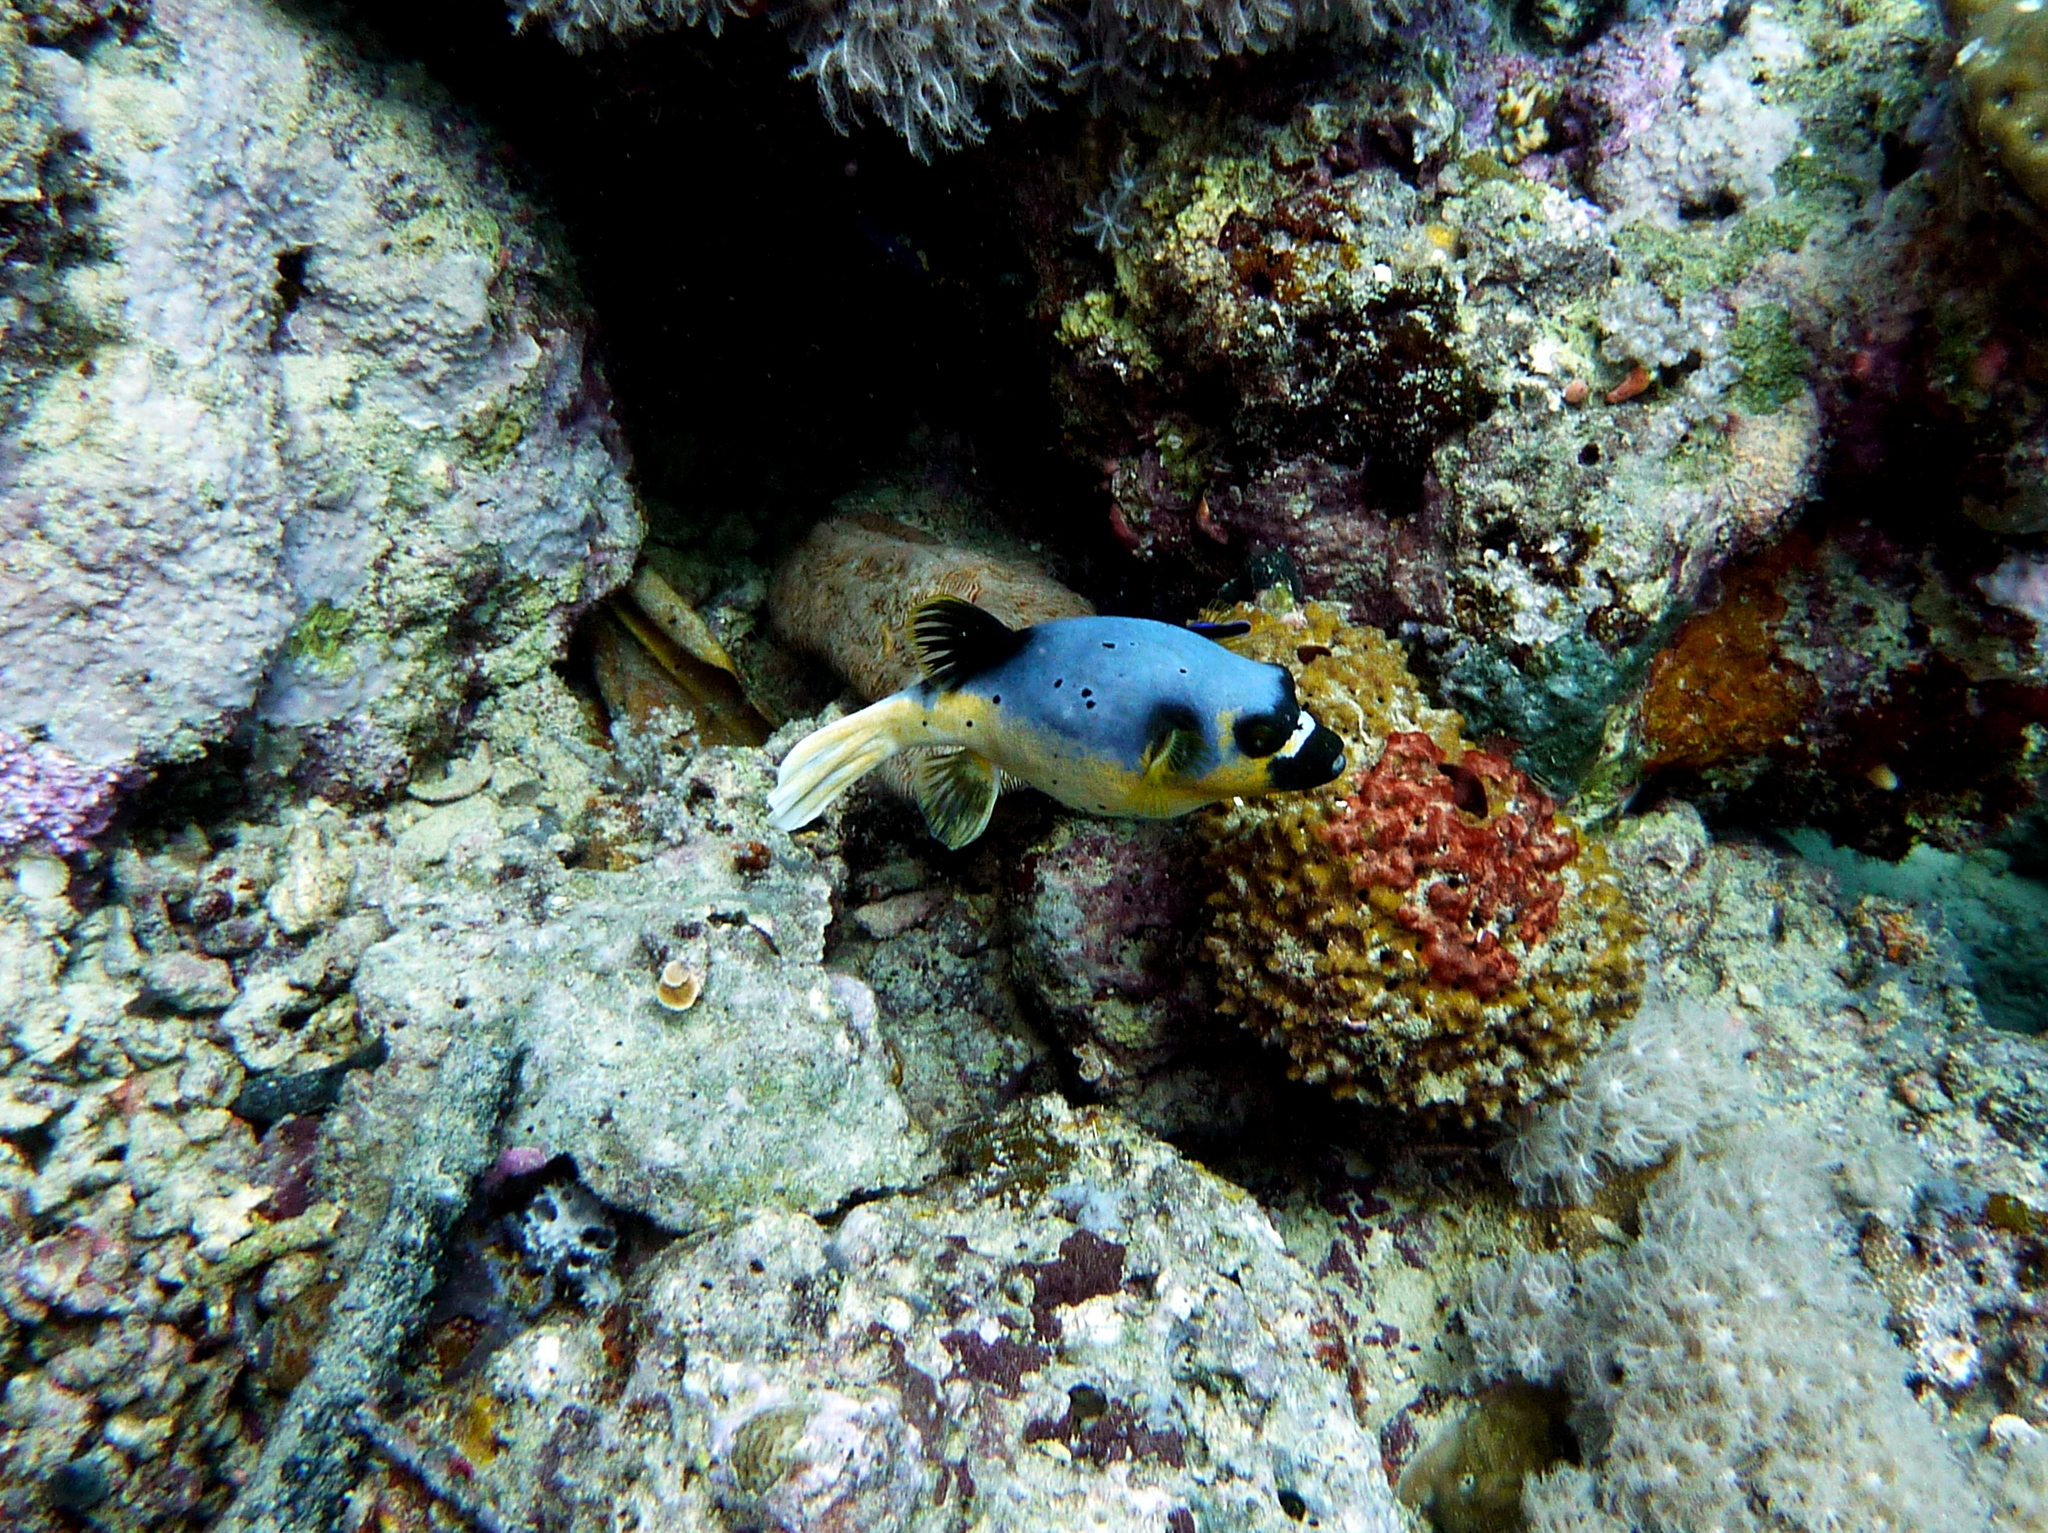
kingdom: Animalia
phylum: Chordata
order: Tetraodontiformes
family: Tetraodontidae
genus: Arothron
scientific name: Arothron nigropunctatus
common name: Black spotted blow fish
